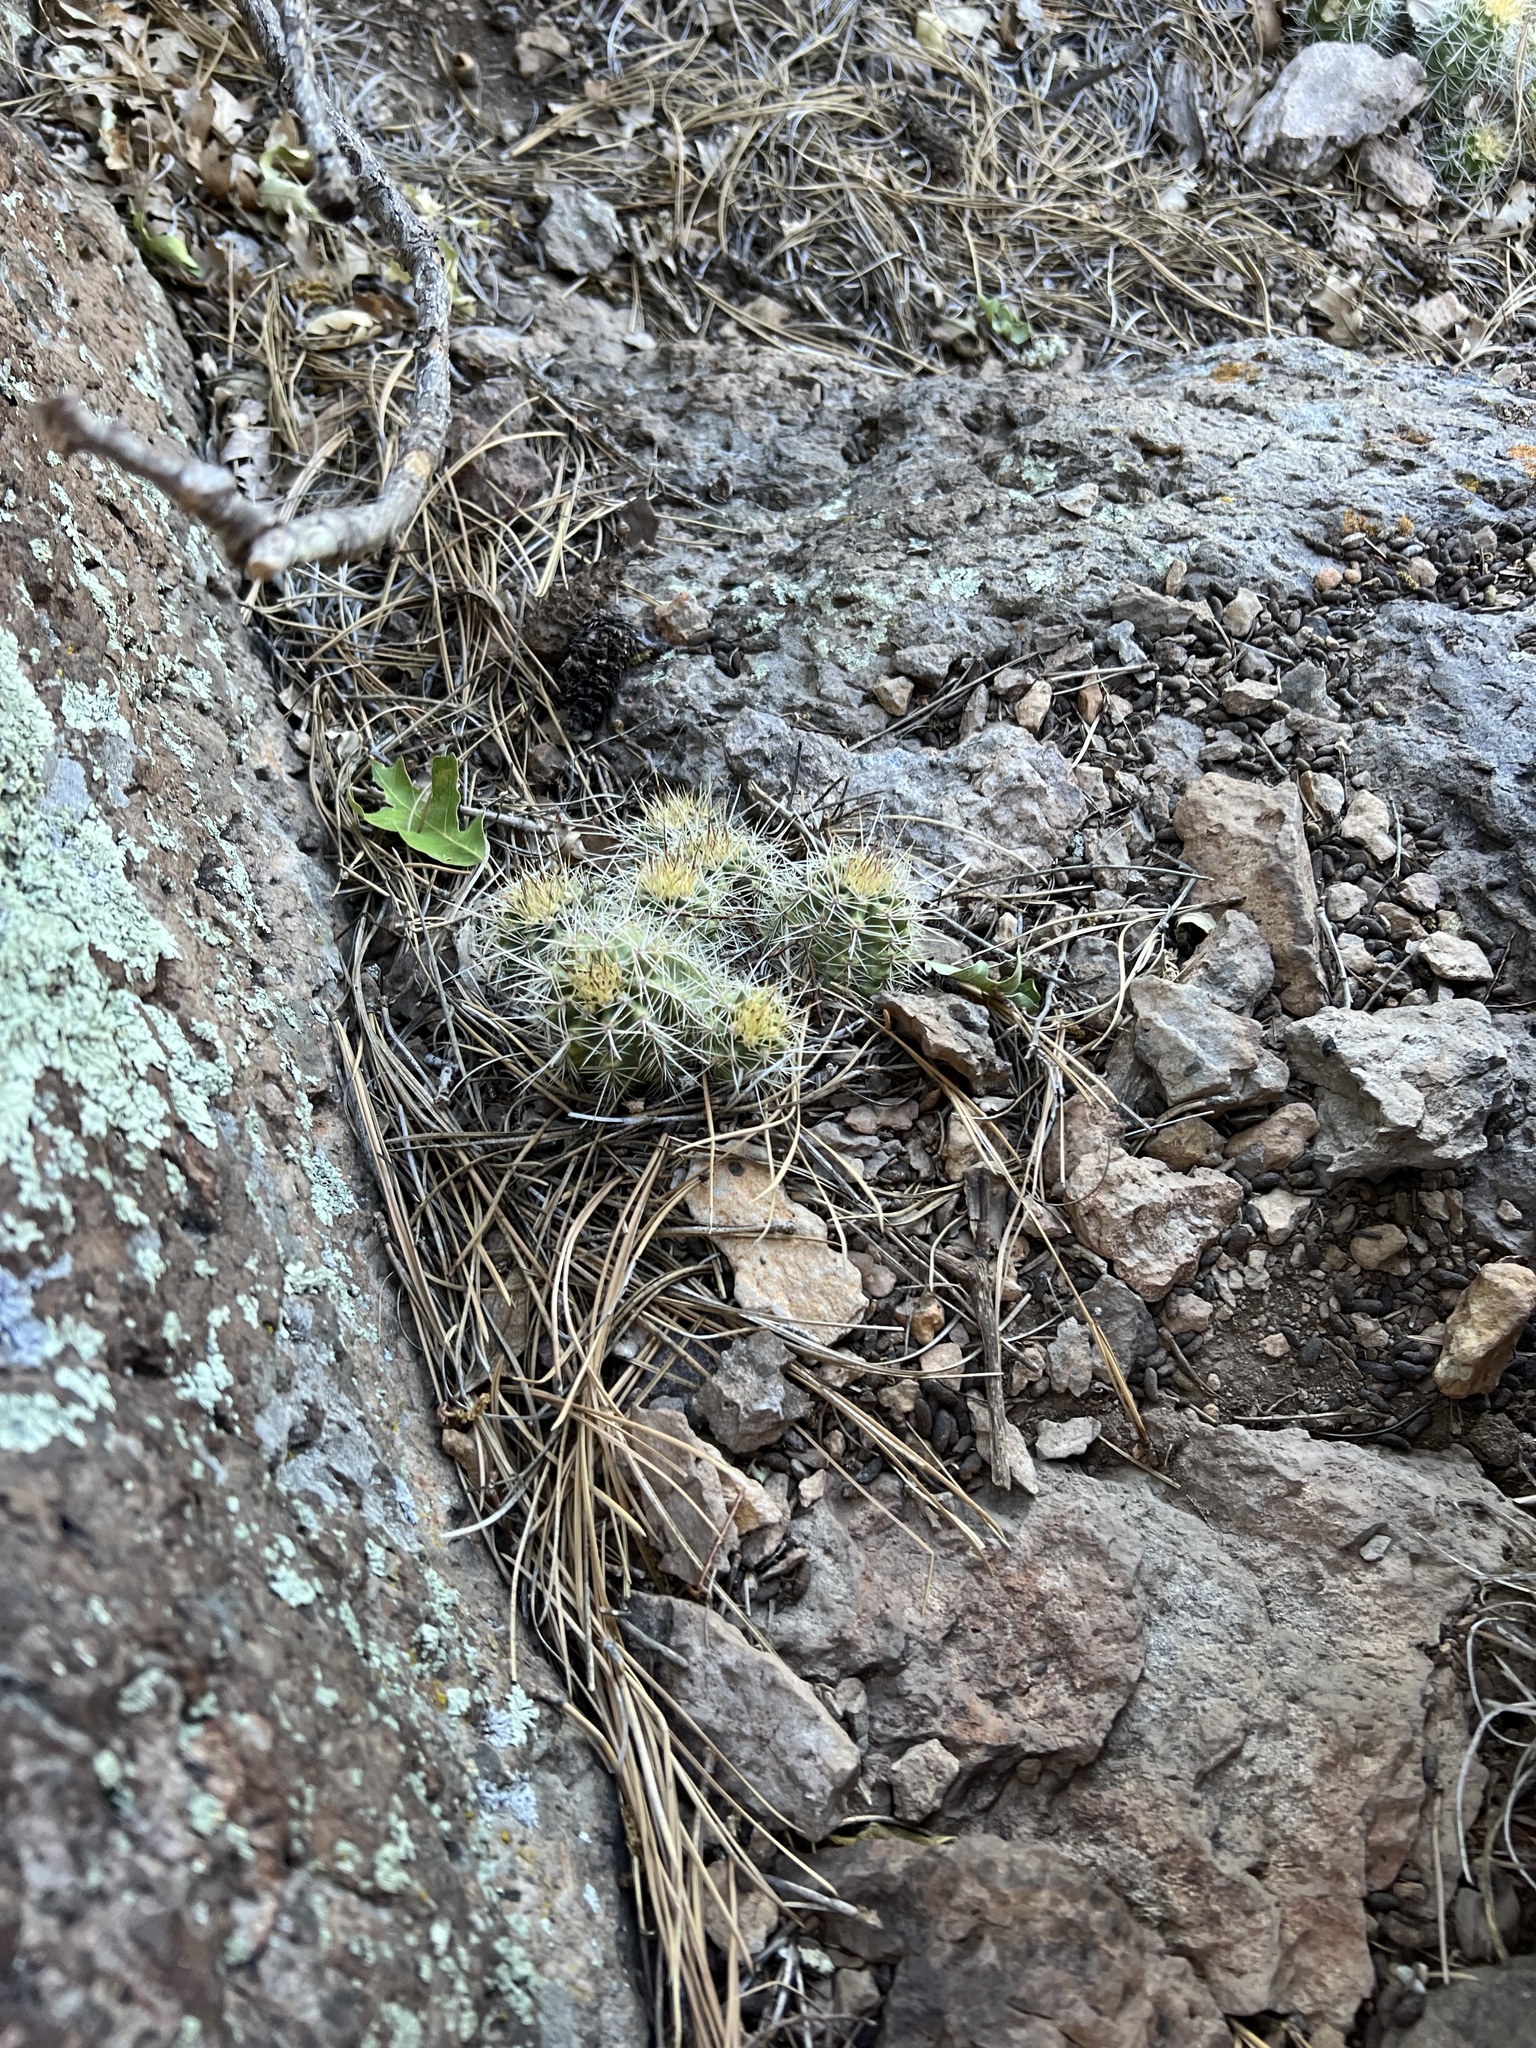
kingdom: Plantae
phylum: Tracheophyta
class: Magnoliopsida
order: Caryophyllales
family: Cactaceae
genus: Echinocereus
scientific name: Echinocereus bakeri
